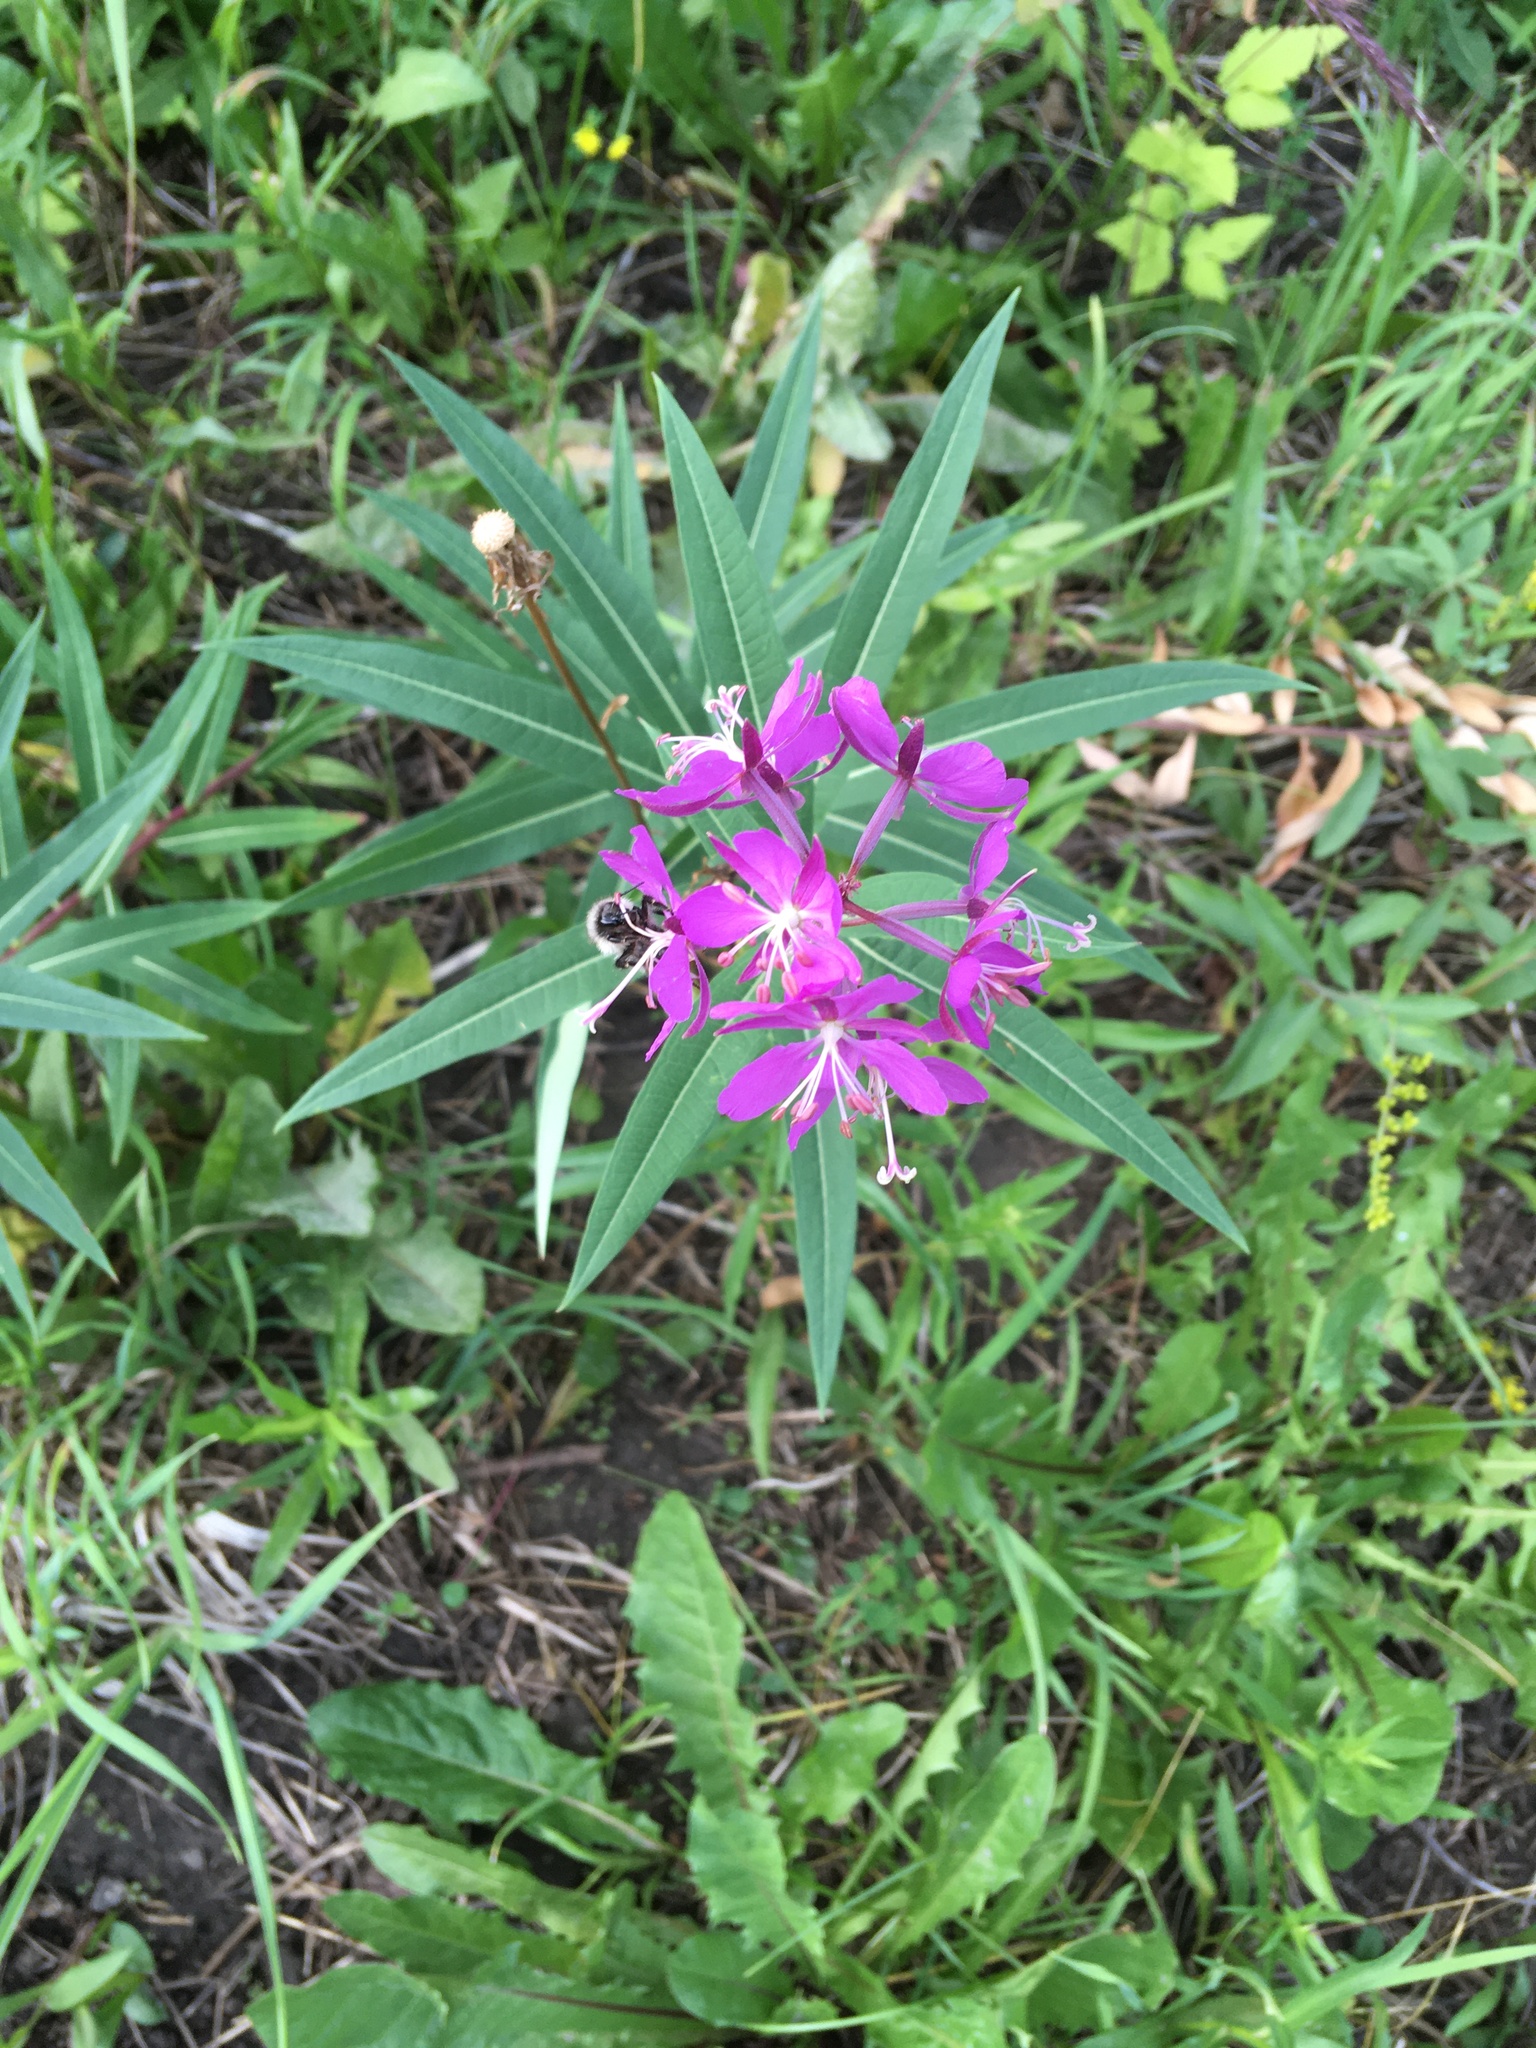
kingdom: Plantae
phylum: Tracheophyta
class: Magnoliopsida
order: Myrtales
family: Onagraceae
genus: Chamaenerion
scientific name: Chamaenerion angustifolium
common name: Fireweed
